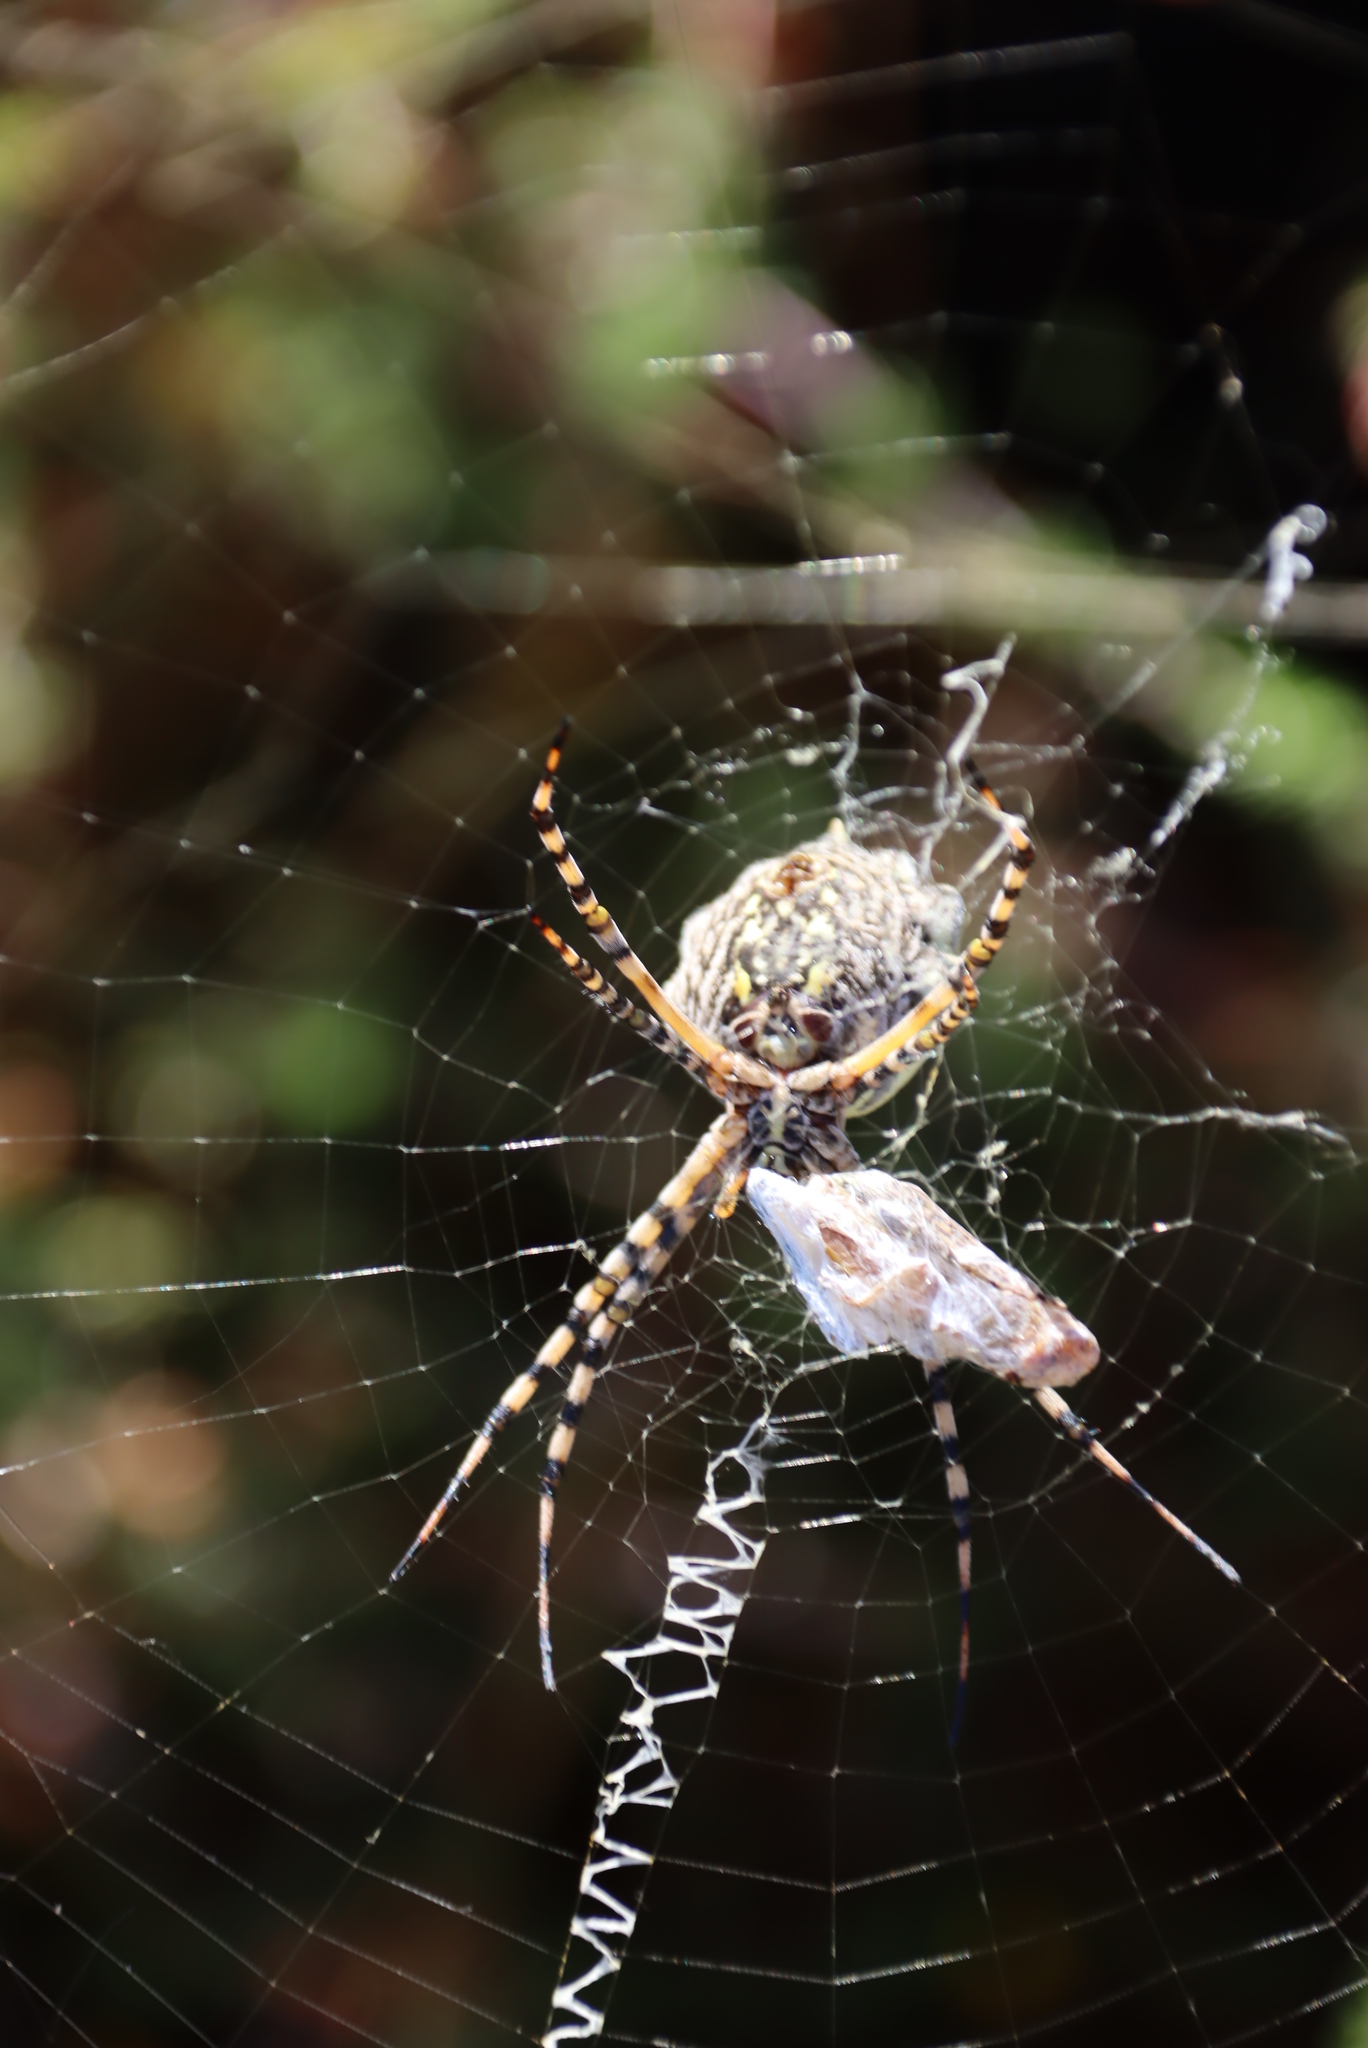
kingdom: Animalia
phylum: Arthropoda
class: Arachnida
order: Araneae
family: Araneidae
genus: Argiope
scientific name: Argiope australis
